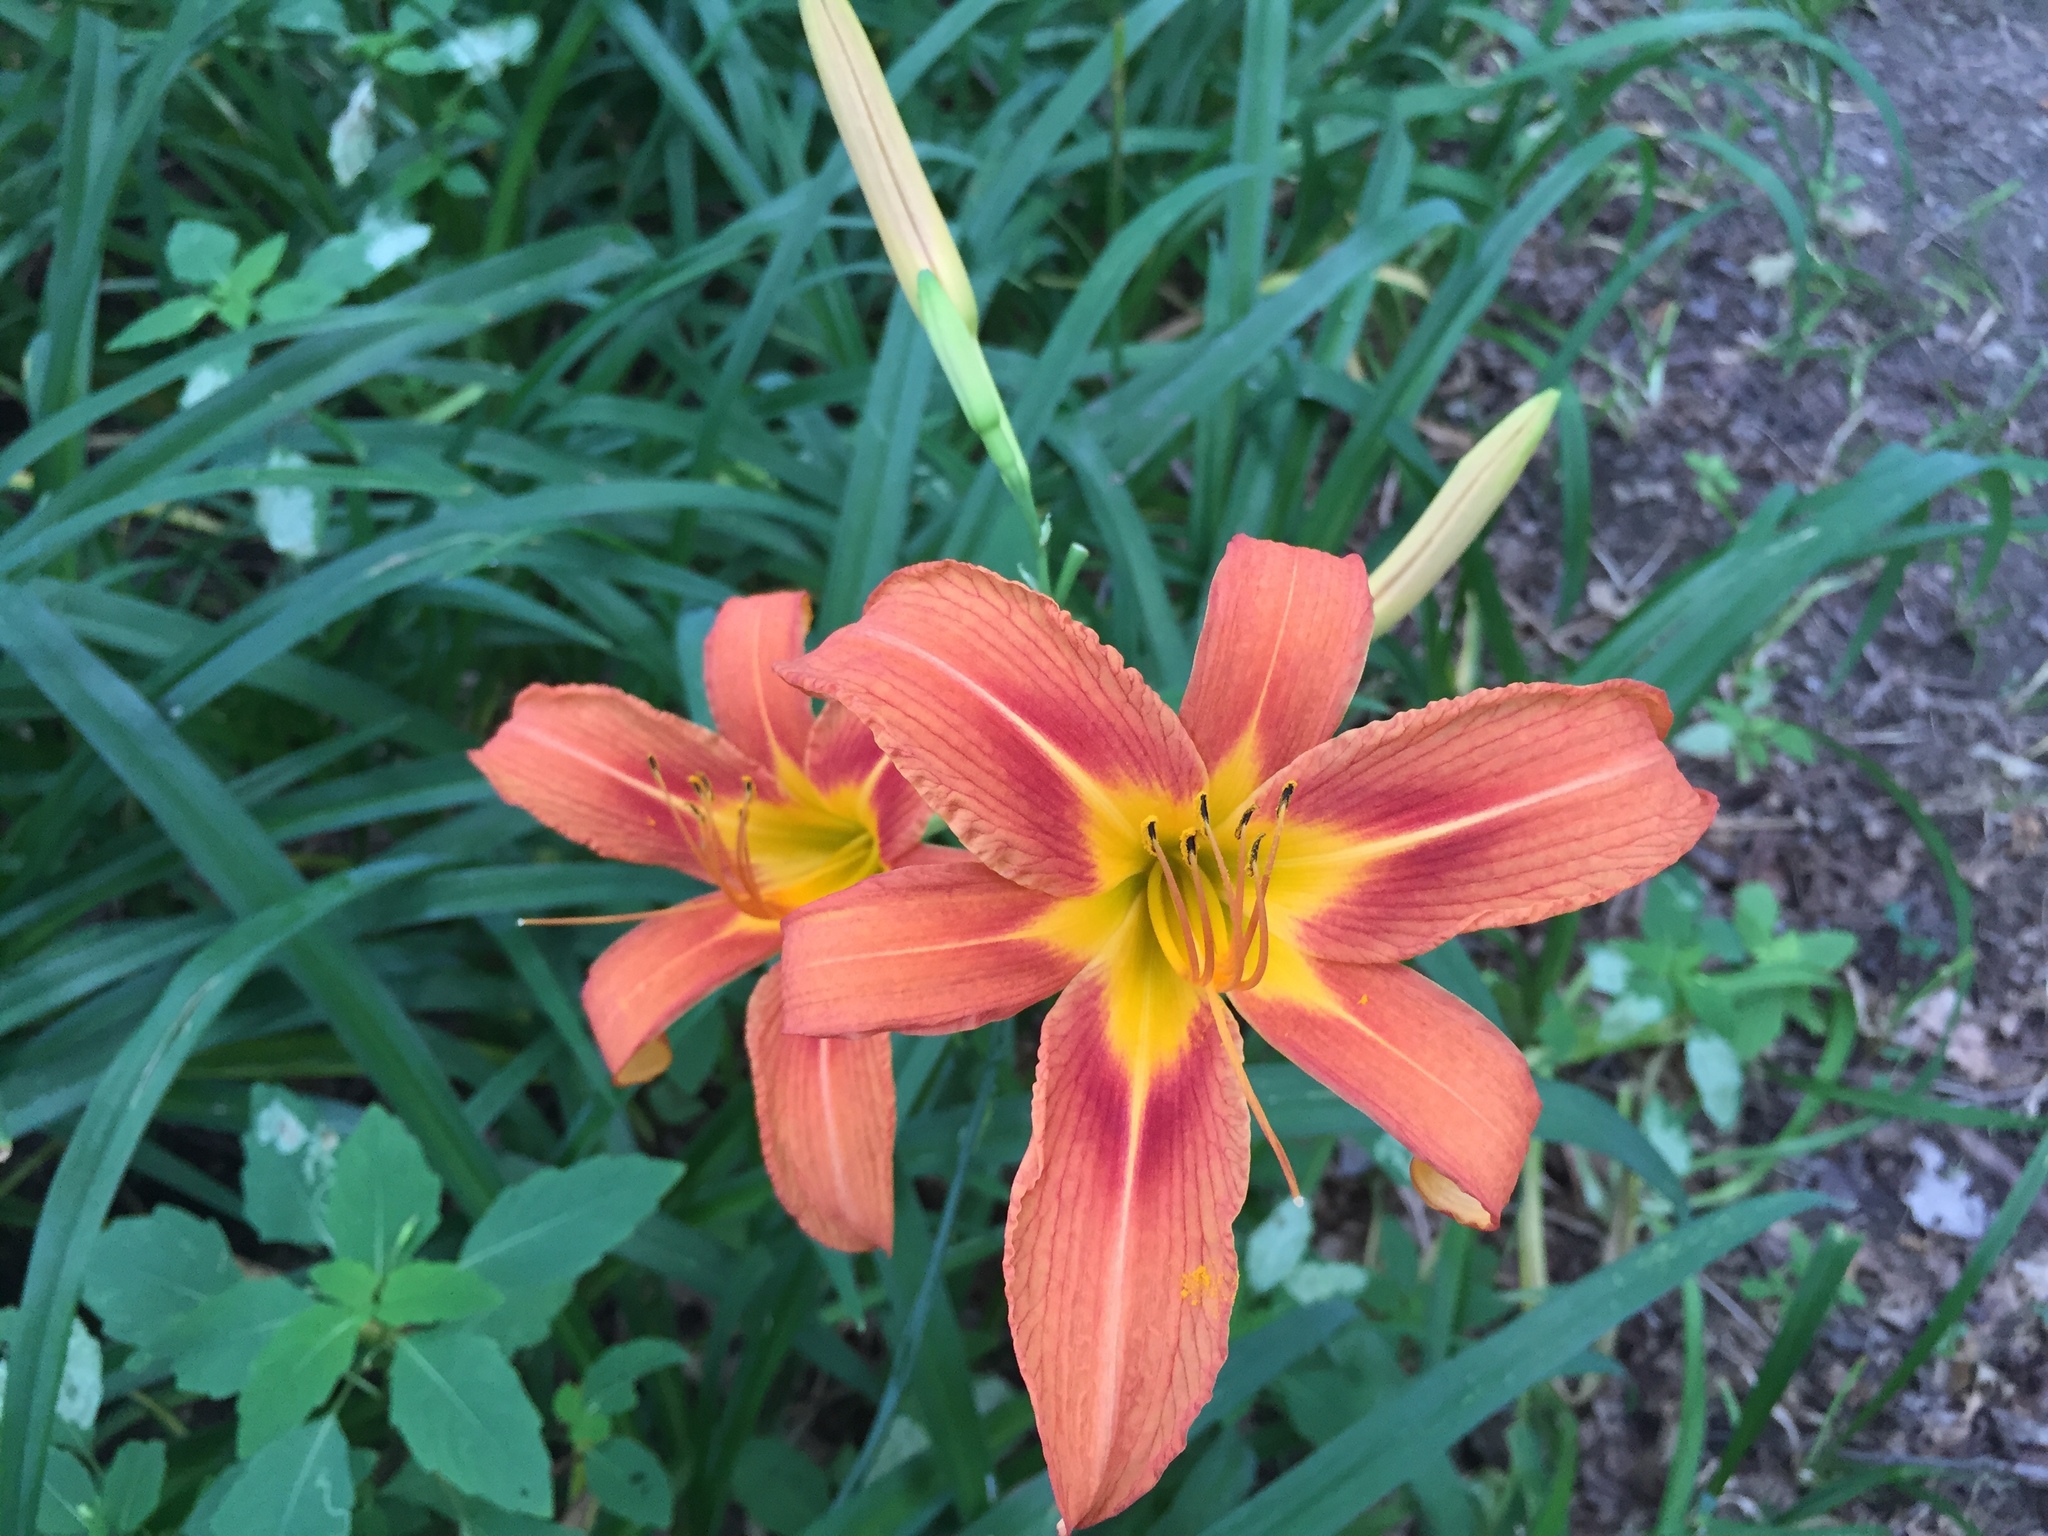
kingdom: Plantae
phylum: Tracheophyta
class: Liliopsida
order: Asparagales
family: Asphodelaceae
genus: Hemerocallis
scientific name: Hemerocallis fulva
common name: Orange day-lily
